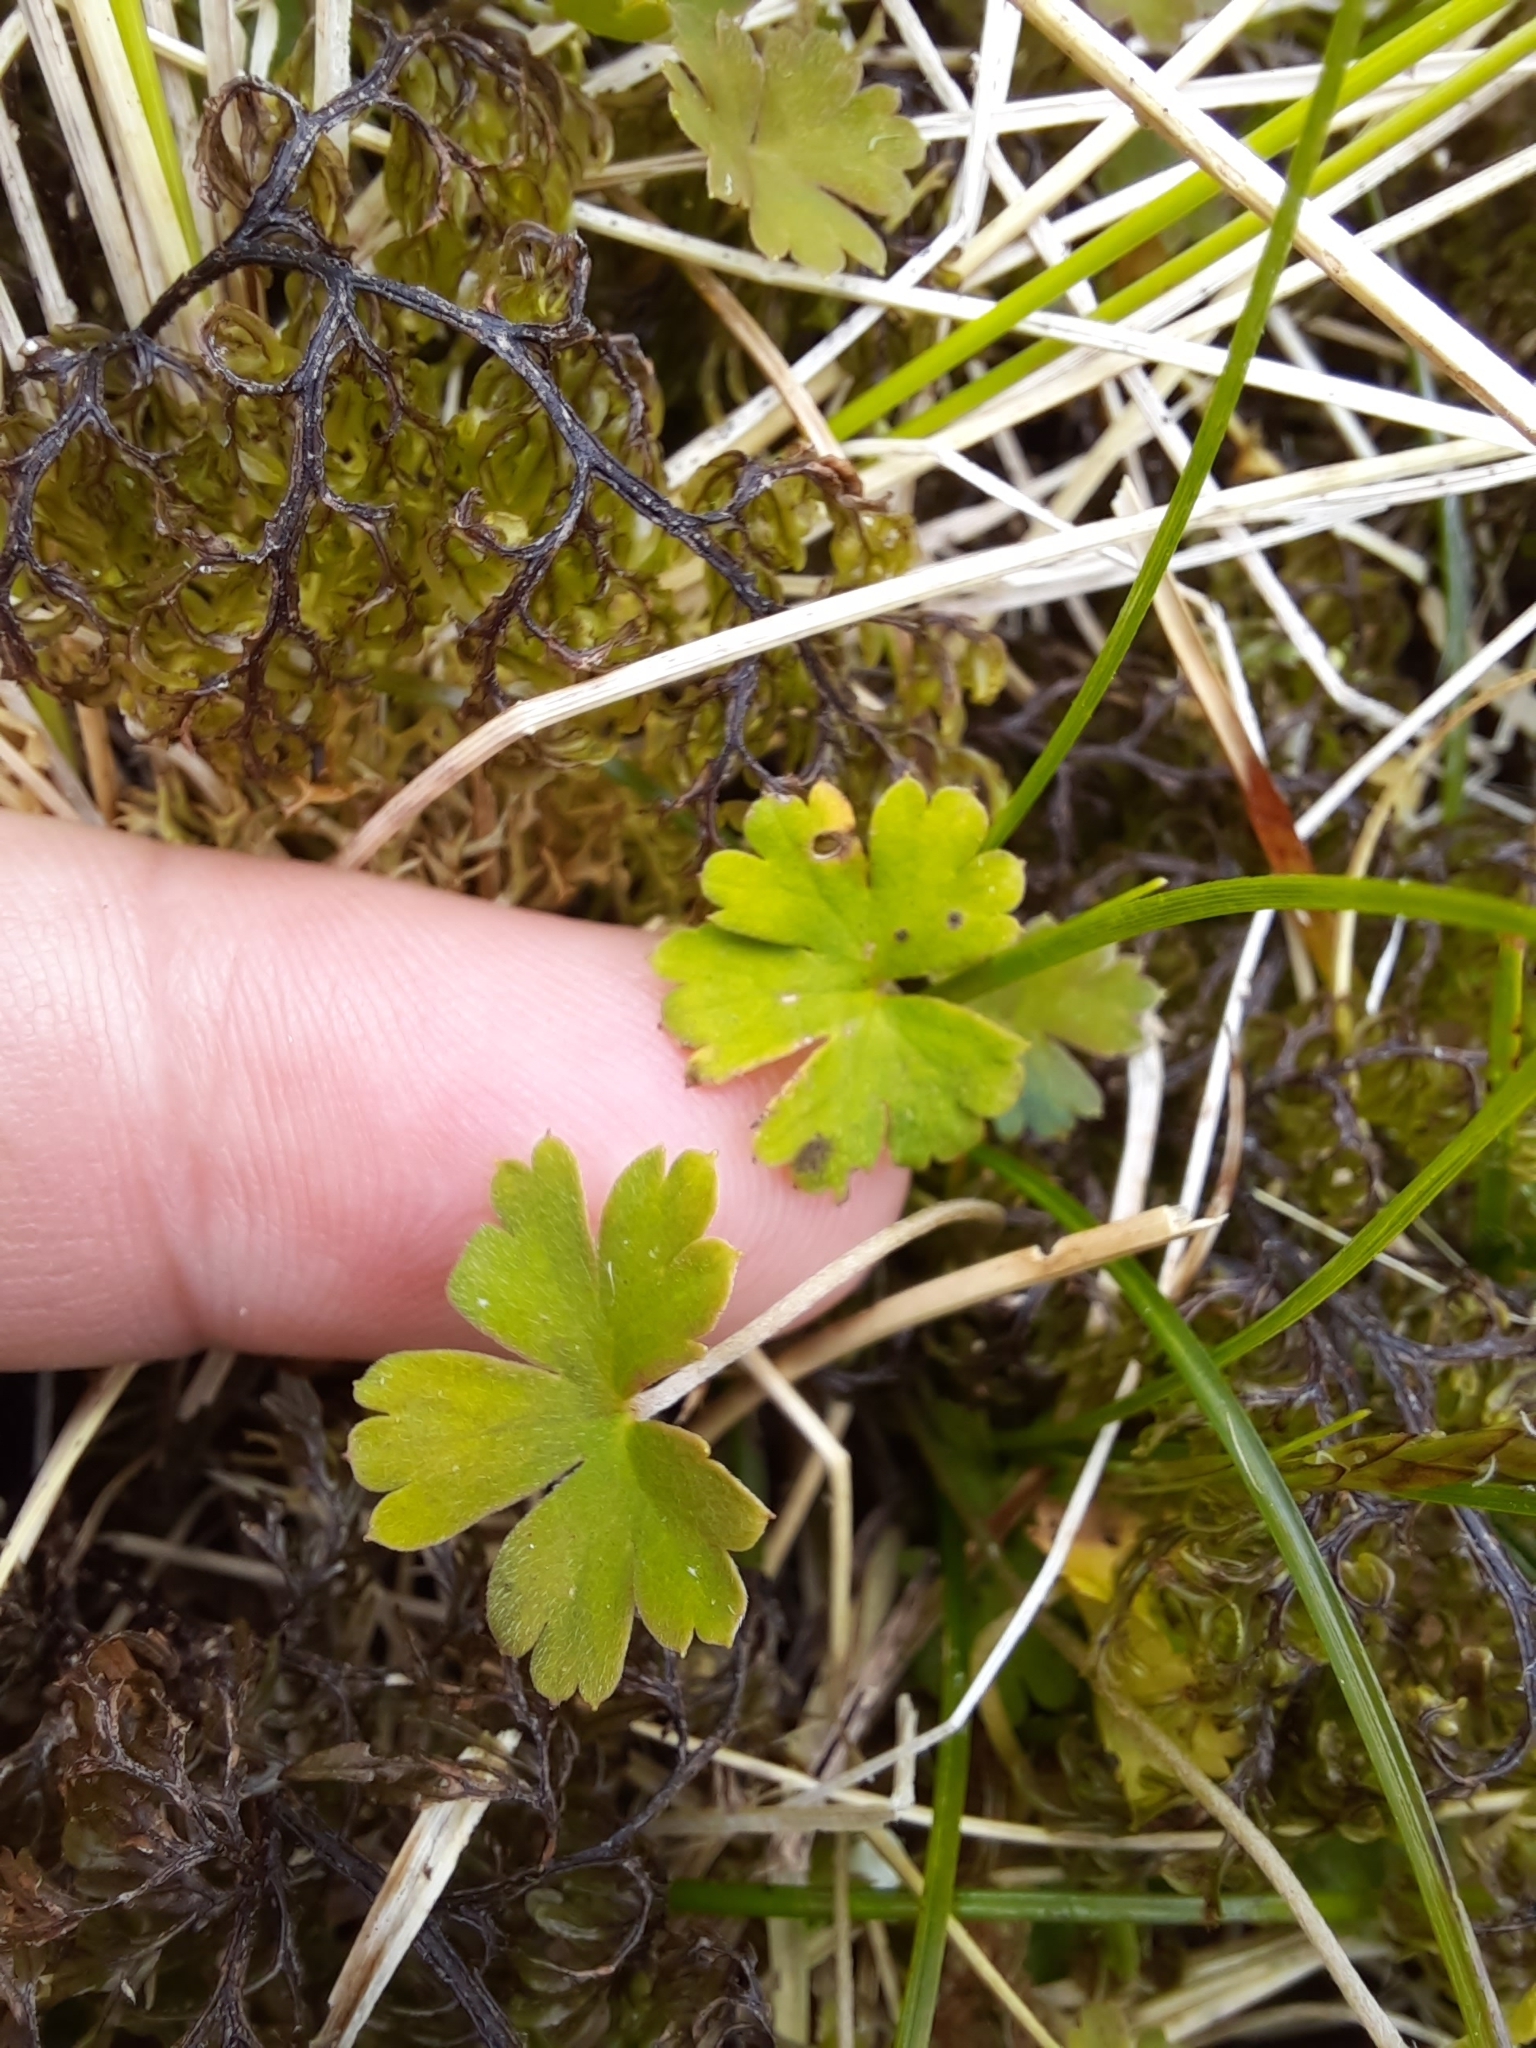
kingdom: Plantae
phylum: Tracheophyta
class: Magnoliopsida
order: Geraniales
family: Geraniaceae
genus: Geranium
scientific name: Geranium
